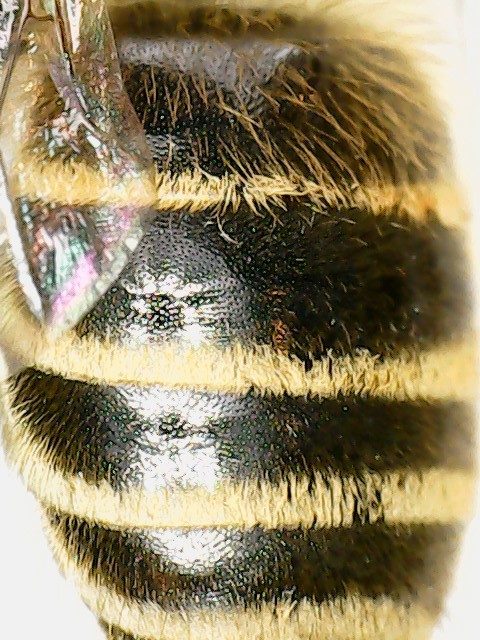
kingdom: Animalia
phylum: Arthropoda
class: Insecta
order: Hymenoptera
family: Colletidae
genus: Colletes
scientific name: Colletes inaequalis
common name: Unequal cellophane bee
